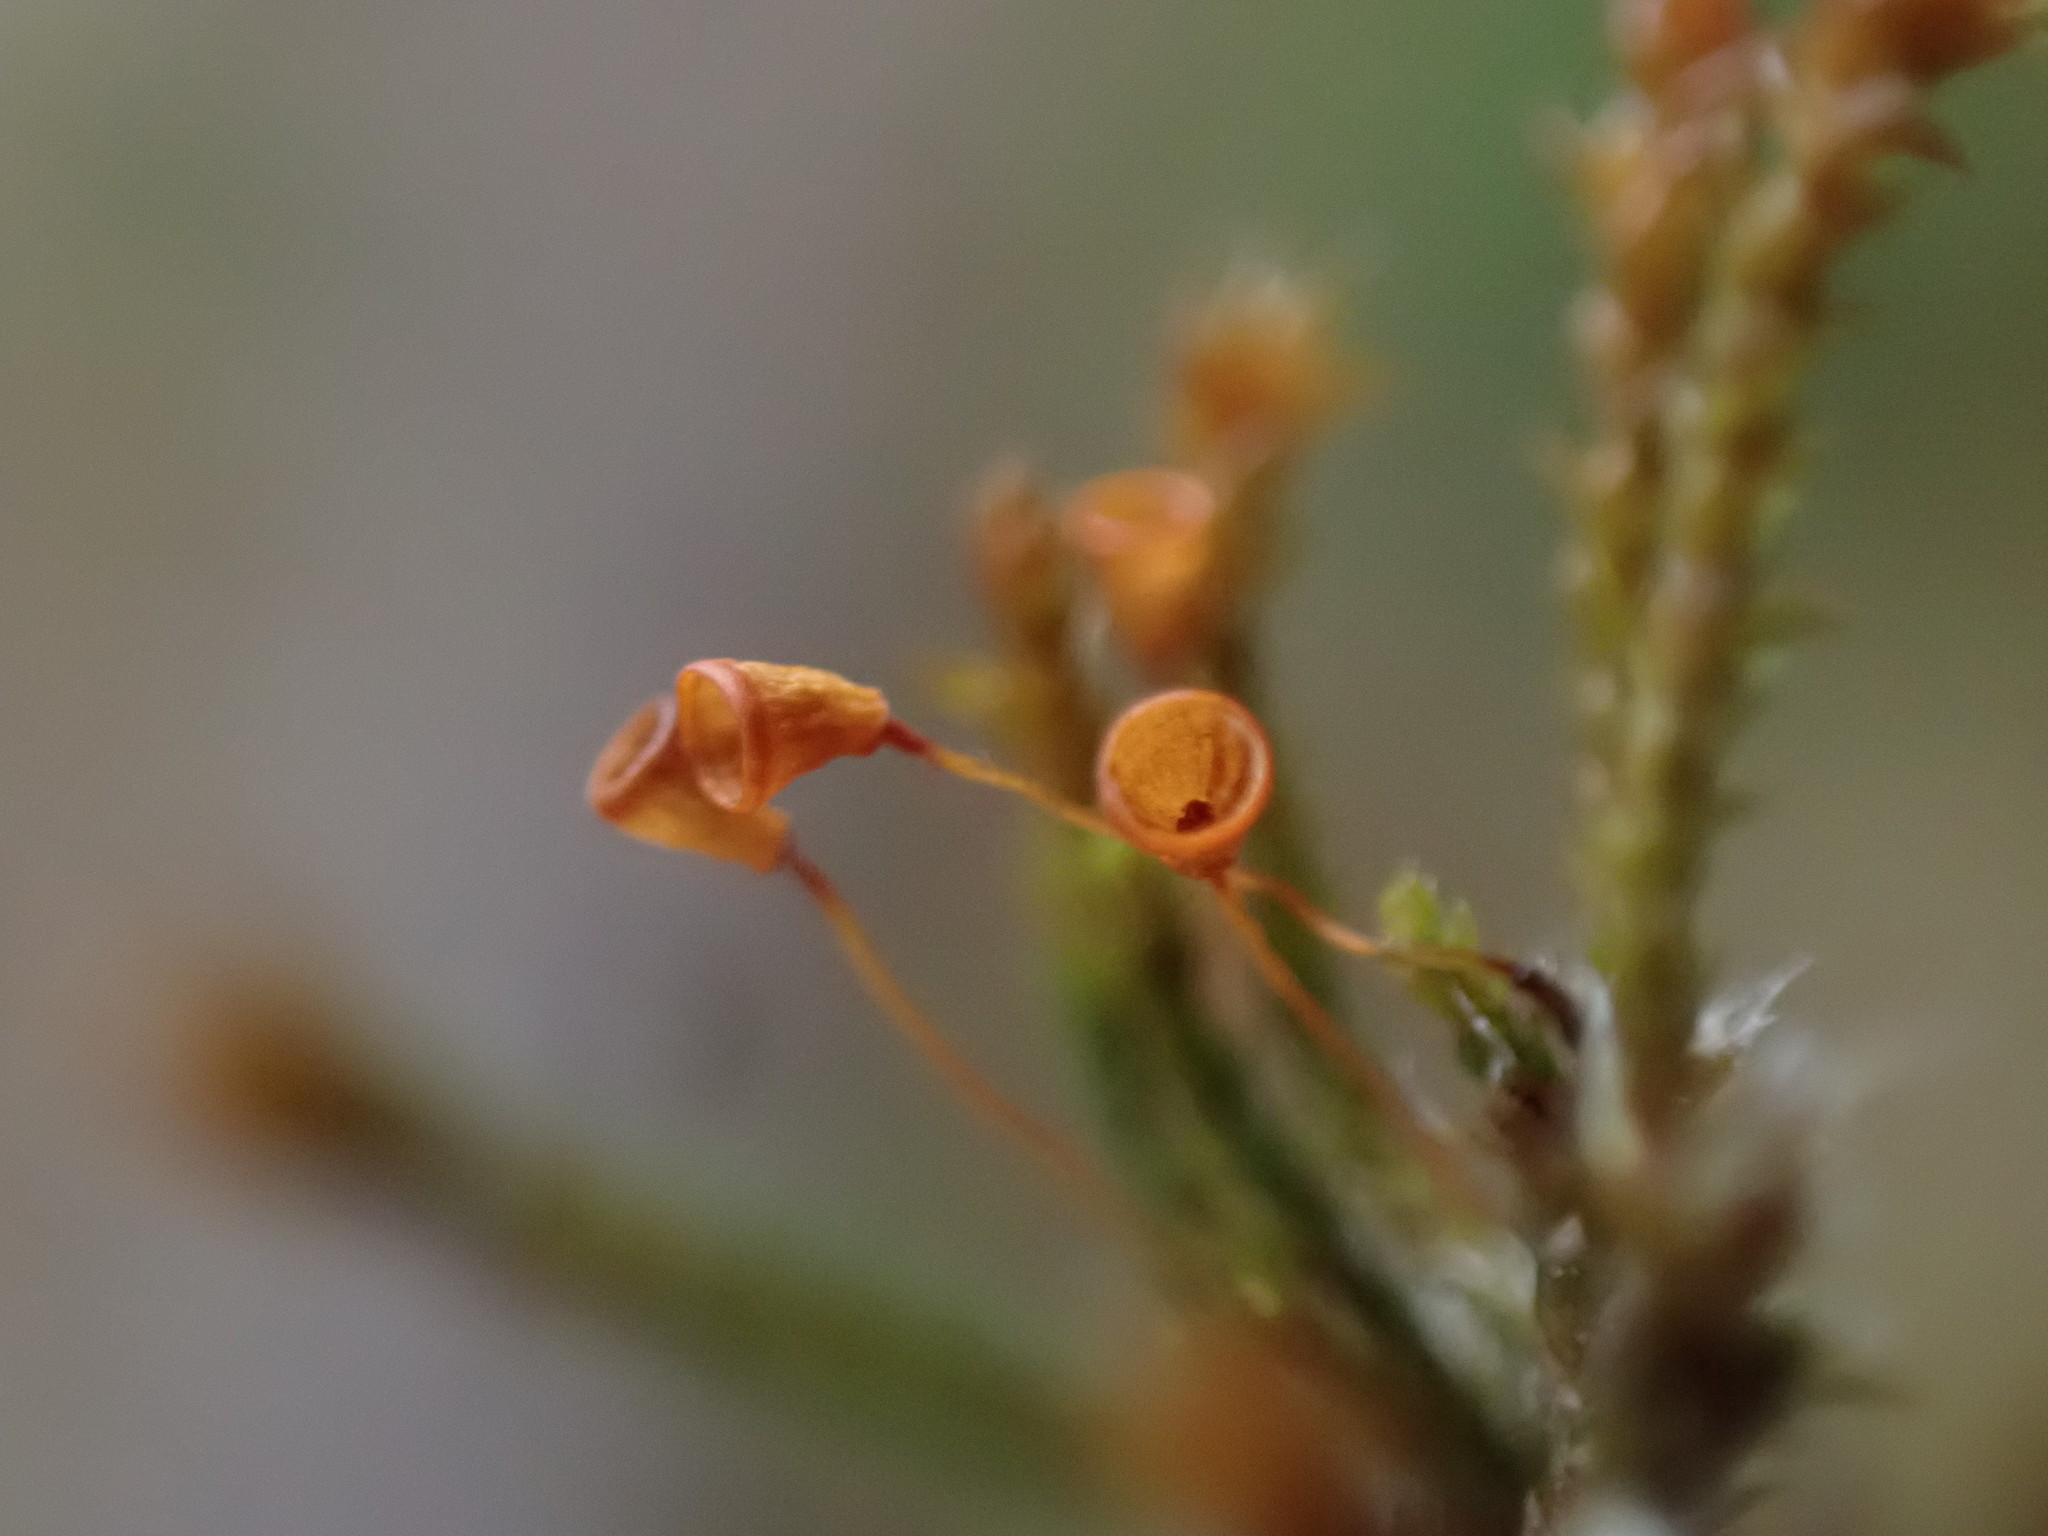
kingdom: Plantae
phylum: Bryophyta
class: Bryopsida
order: Hedwigiales
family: Hedwigiaceae
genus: Pseudobraunia
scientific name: Pseudobraunia californica
